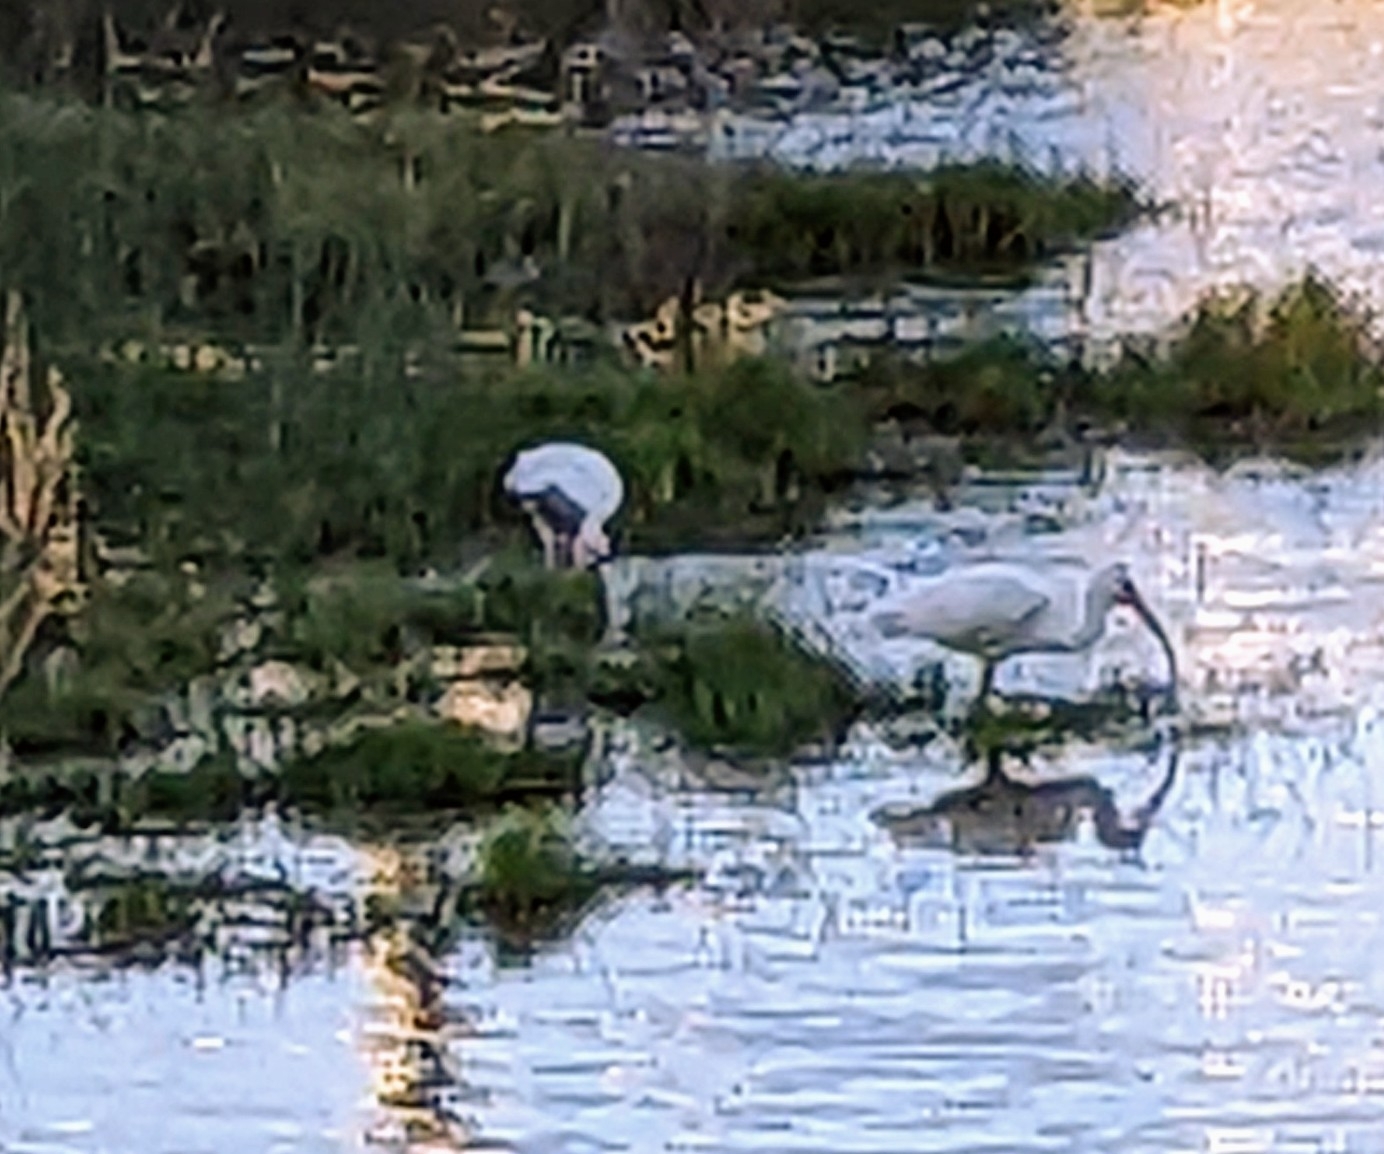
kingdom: Animalia
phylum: Chordata
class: Aves
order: Pelecaniformes
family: Threskiornithidae
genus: Eudocimus
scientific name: Eudocimus albus
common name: White ibis
